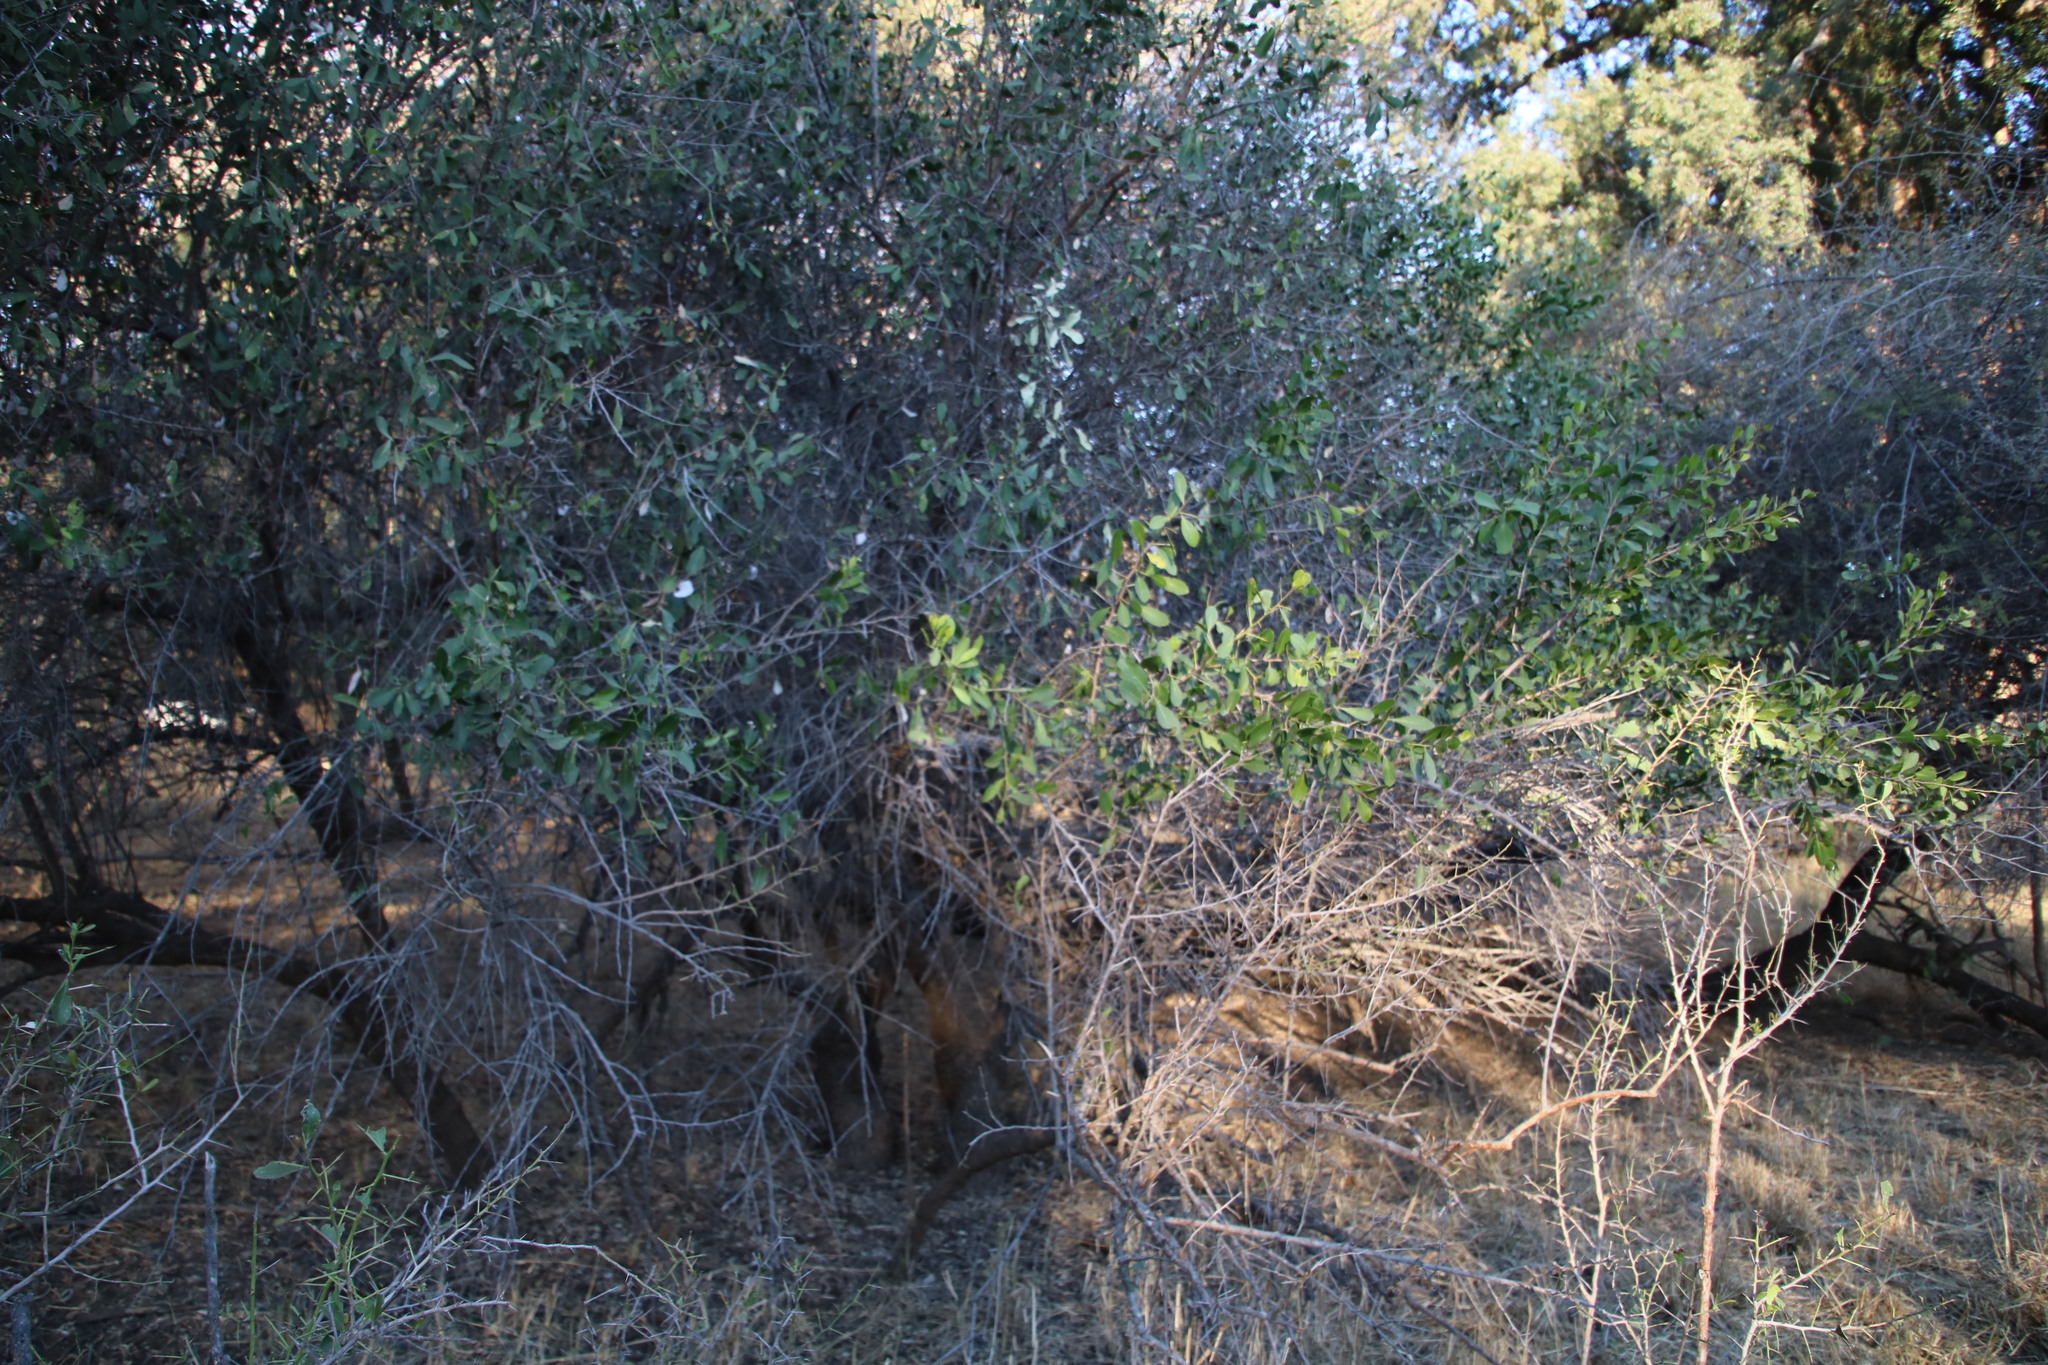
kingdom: Plantae
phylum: Tracheophyta
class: Magnoliopsida
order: Celastrales
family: Celastraceae
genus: Gymnosporia
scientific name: Gymnosporia senegalensis
